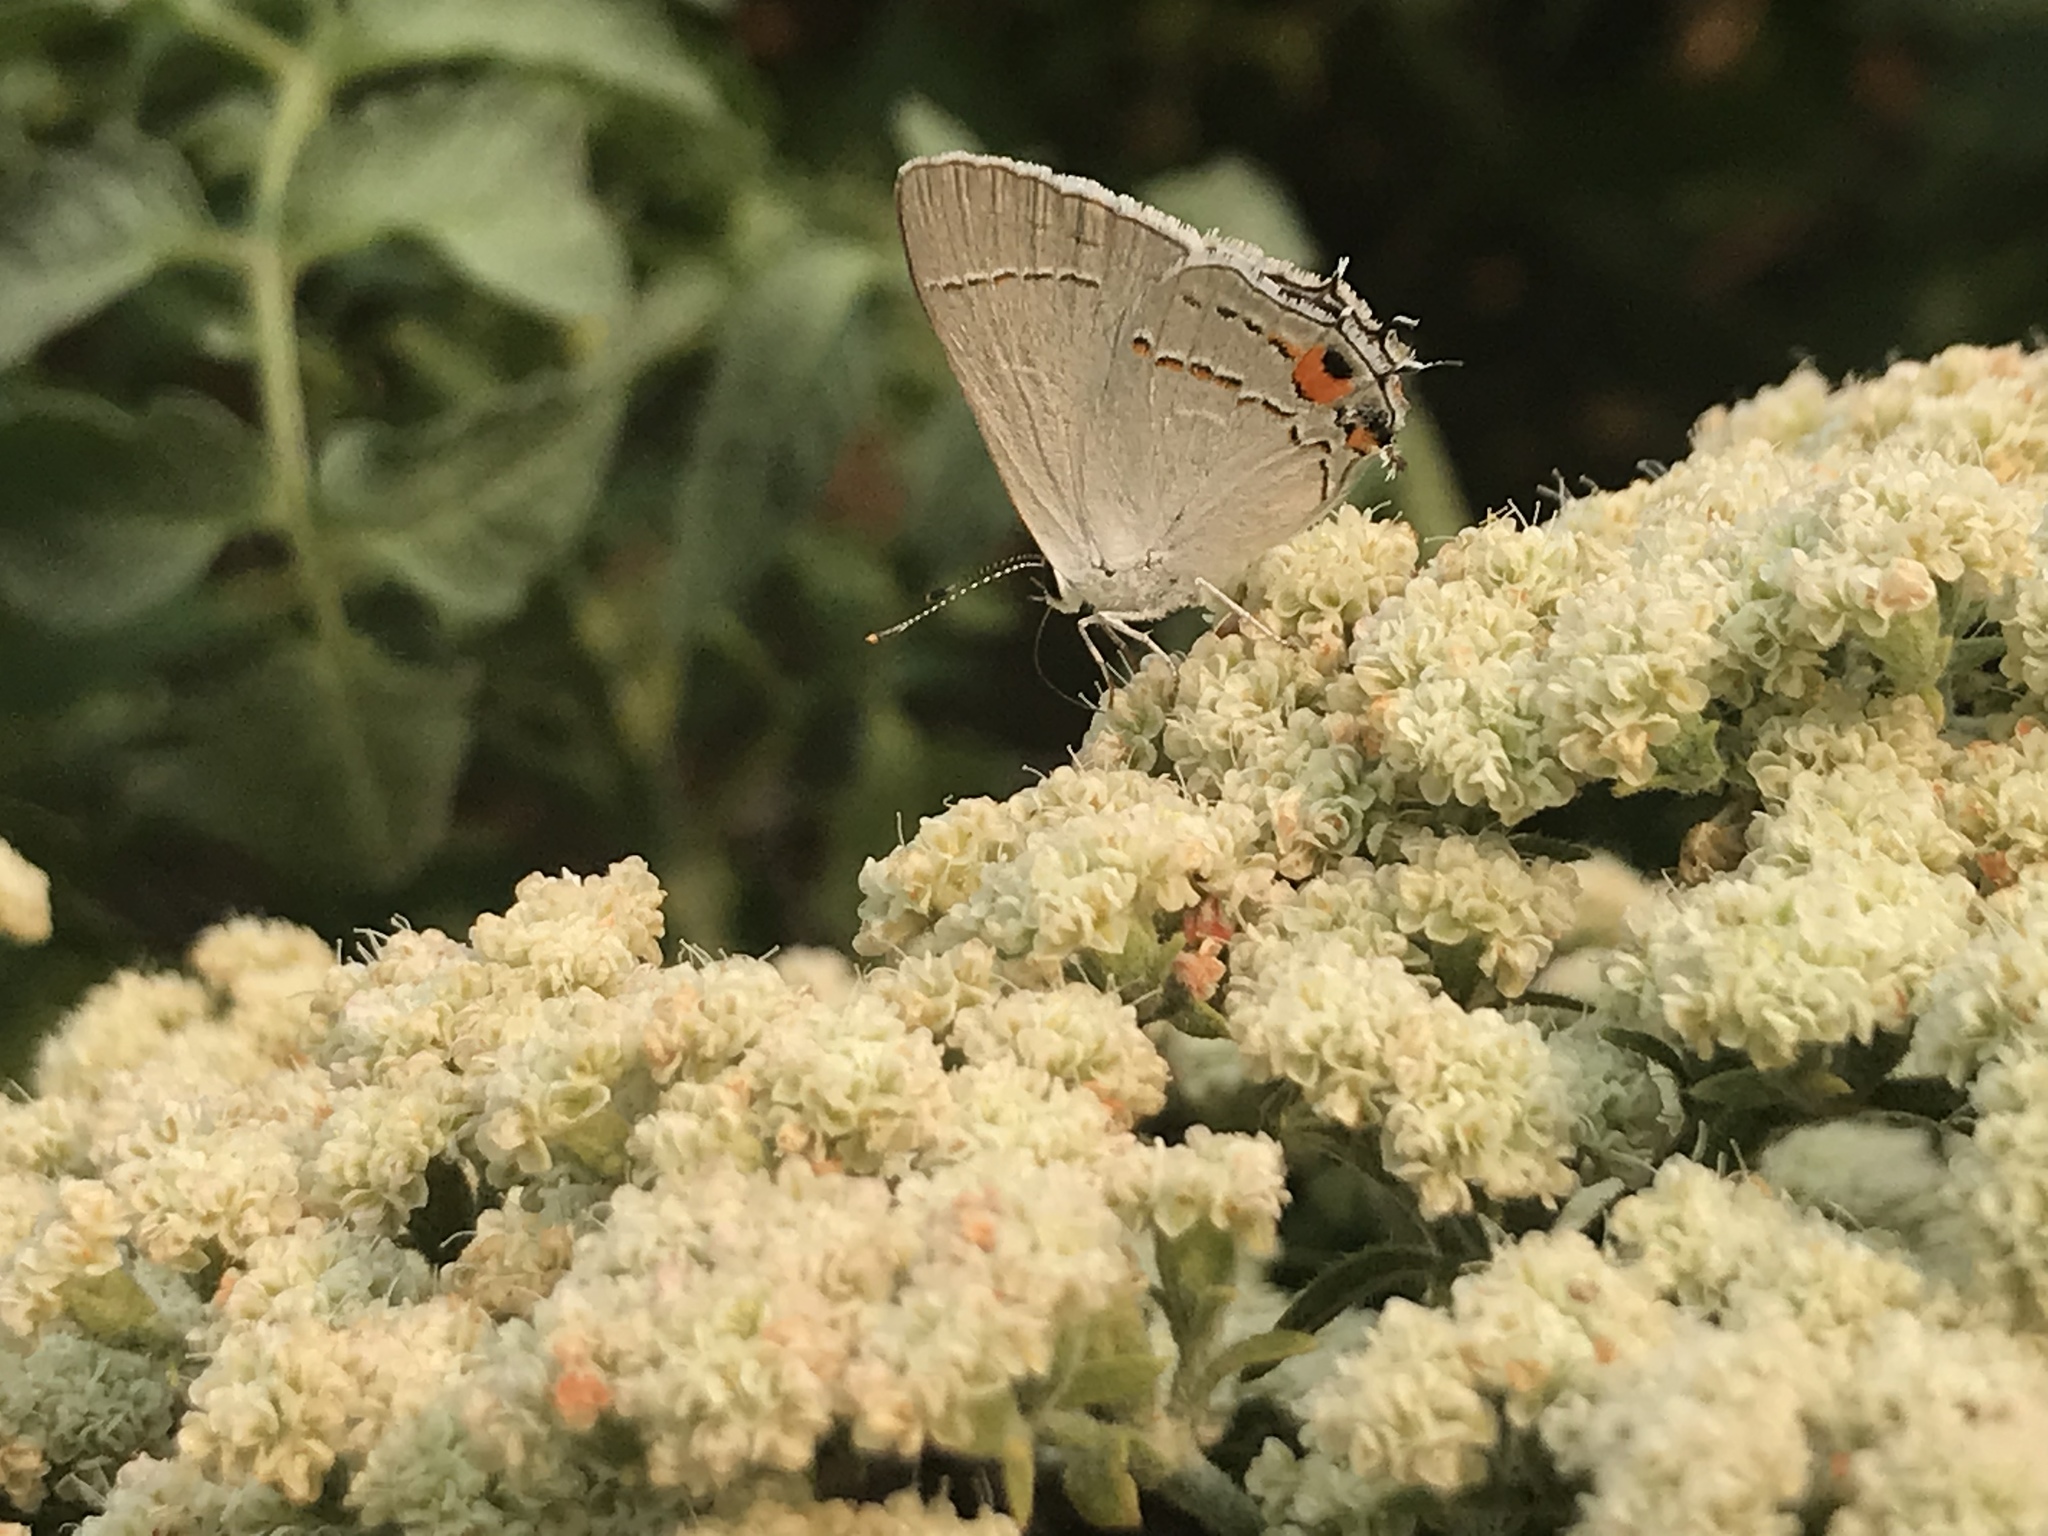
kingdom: Animalia
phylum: Arthropoda
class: Insecta
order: Lepidoptera
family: Lycaenidae
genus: Strymon
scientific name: Strymon melinus
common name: Gray hairstreak
